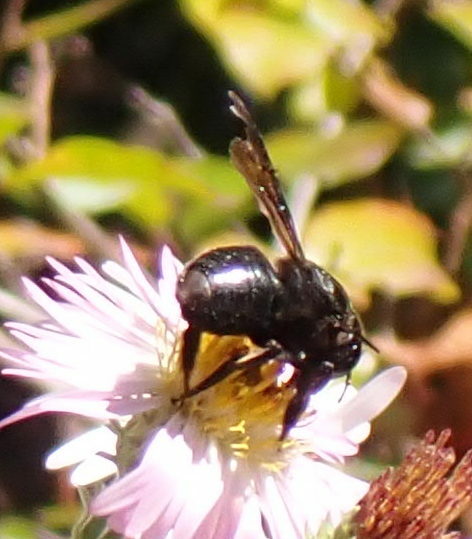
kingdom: Animalia
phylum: Arthropoda
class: Insecta
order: Hymenoptera
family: Megachilidae
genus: Megachile
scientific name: Megachile xylocopoides
